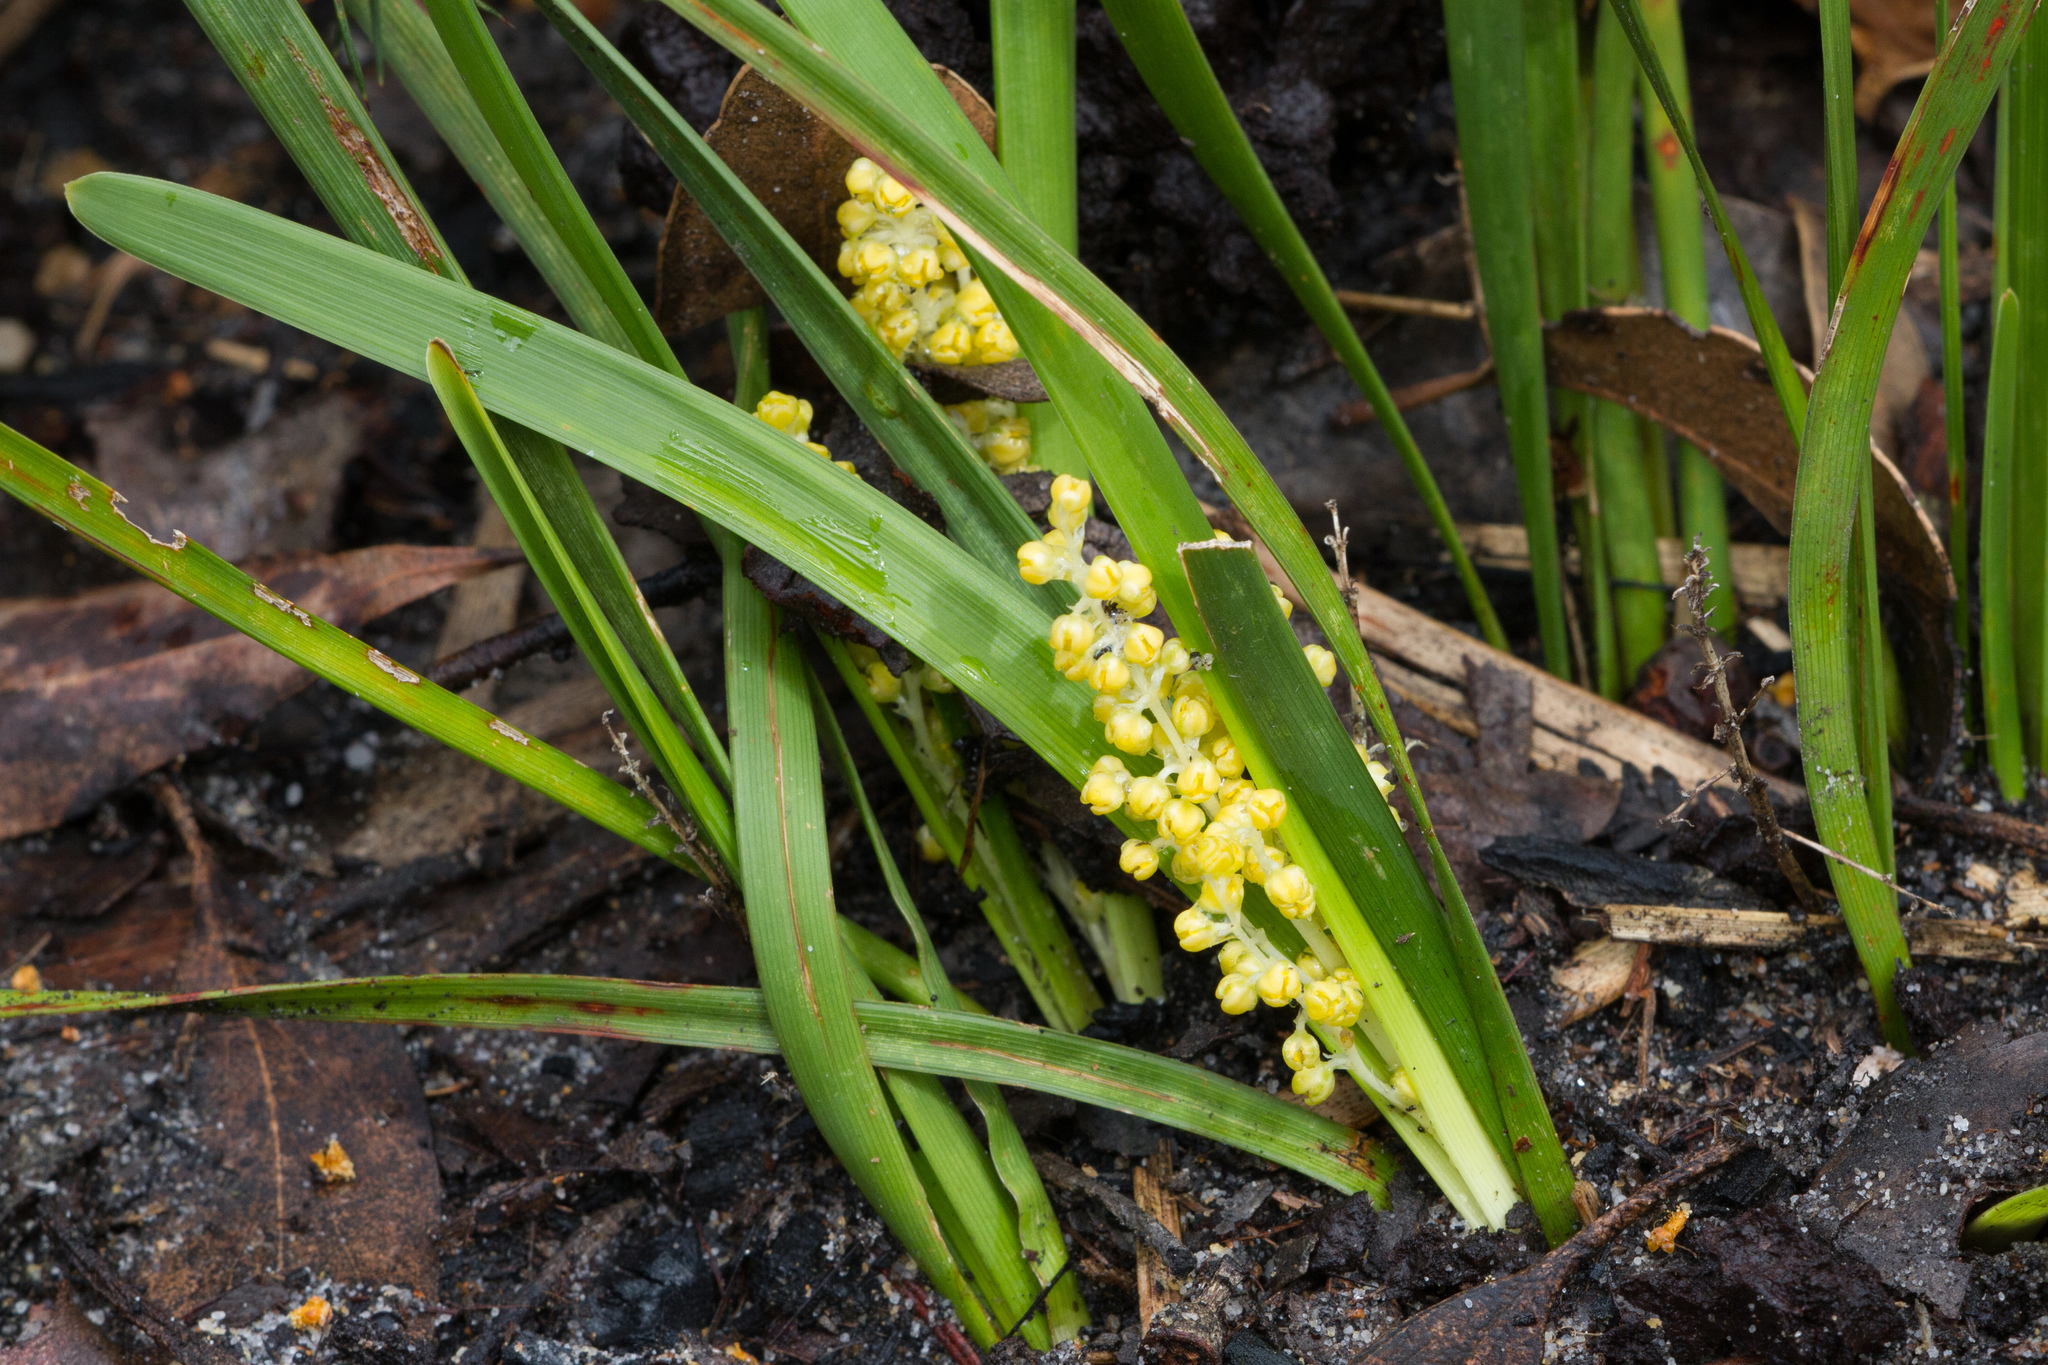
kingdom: Plantae
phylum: Tracheophyta
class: Liliopsida
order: Asparagales
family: Asparagaceae
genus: Lomandra
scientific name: Lomandra filiformis
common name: Wattle mat-rush
